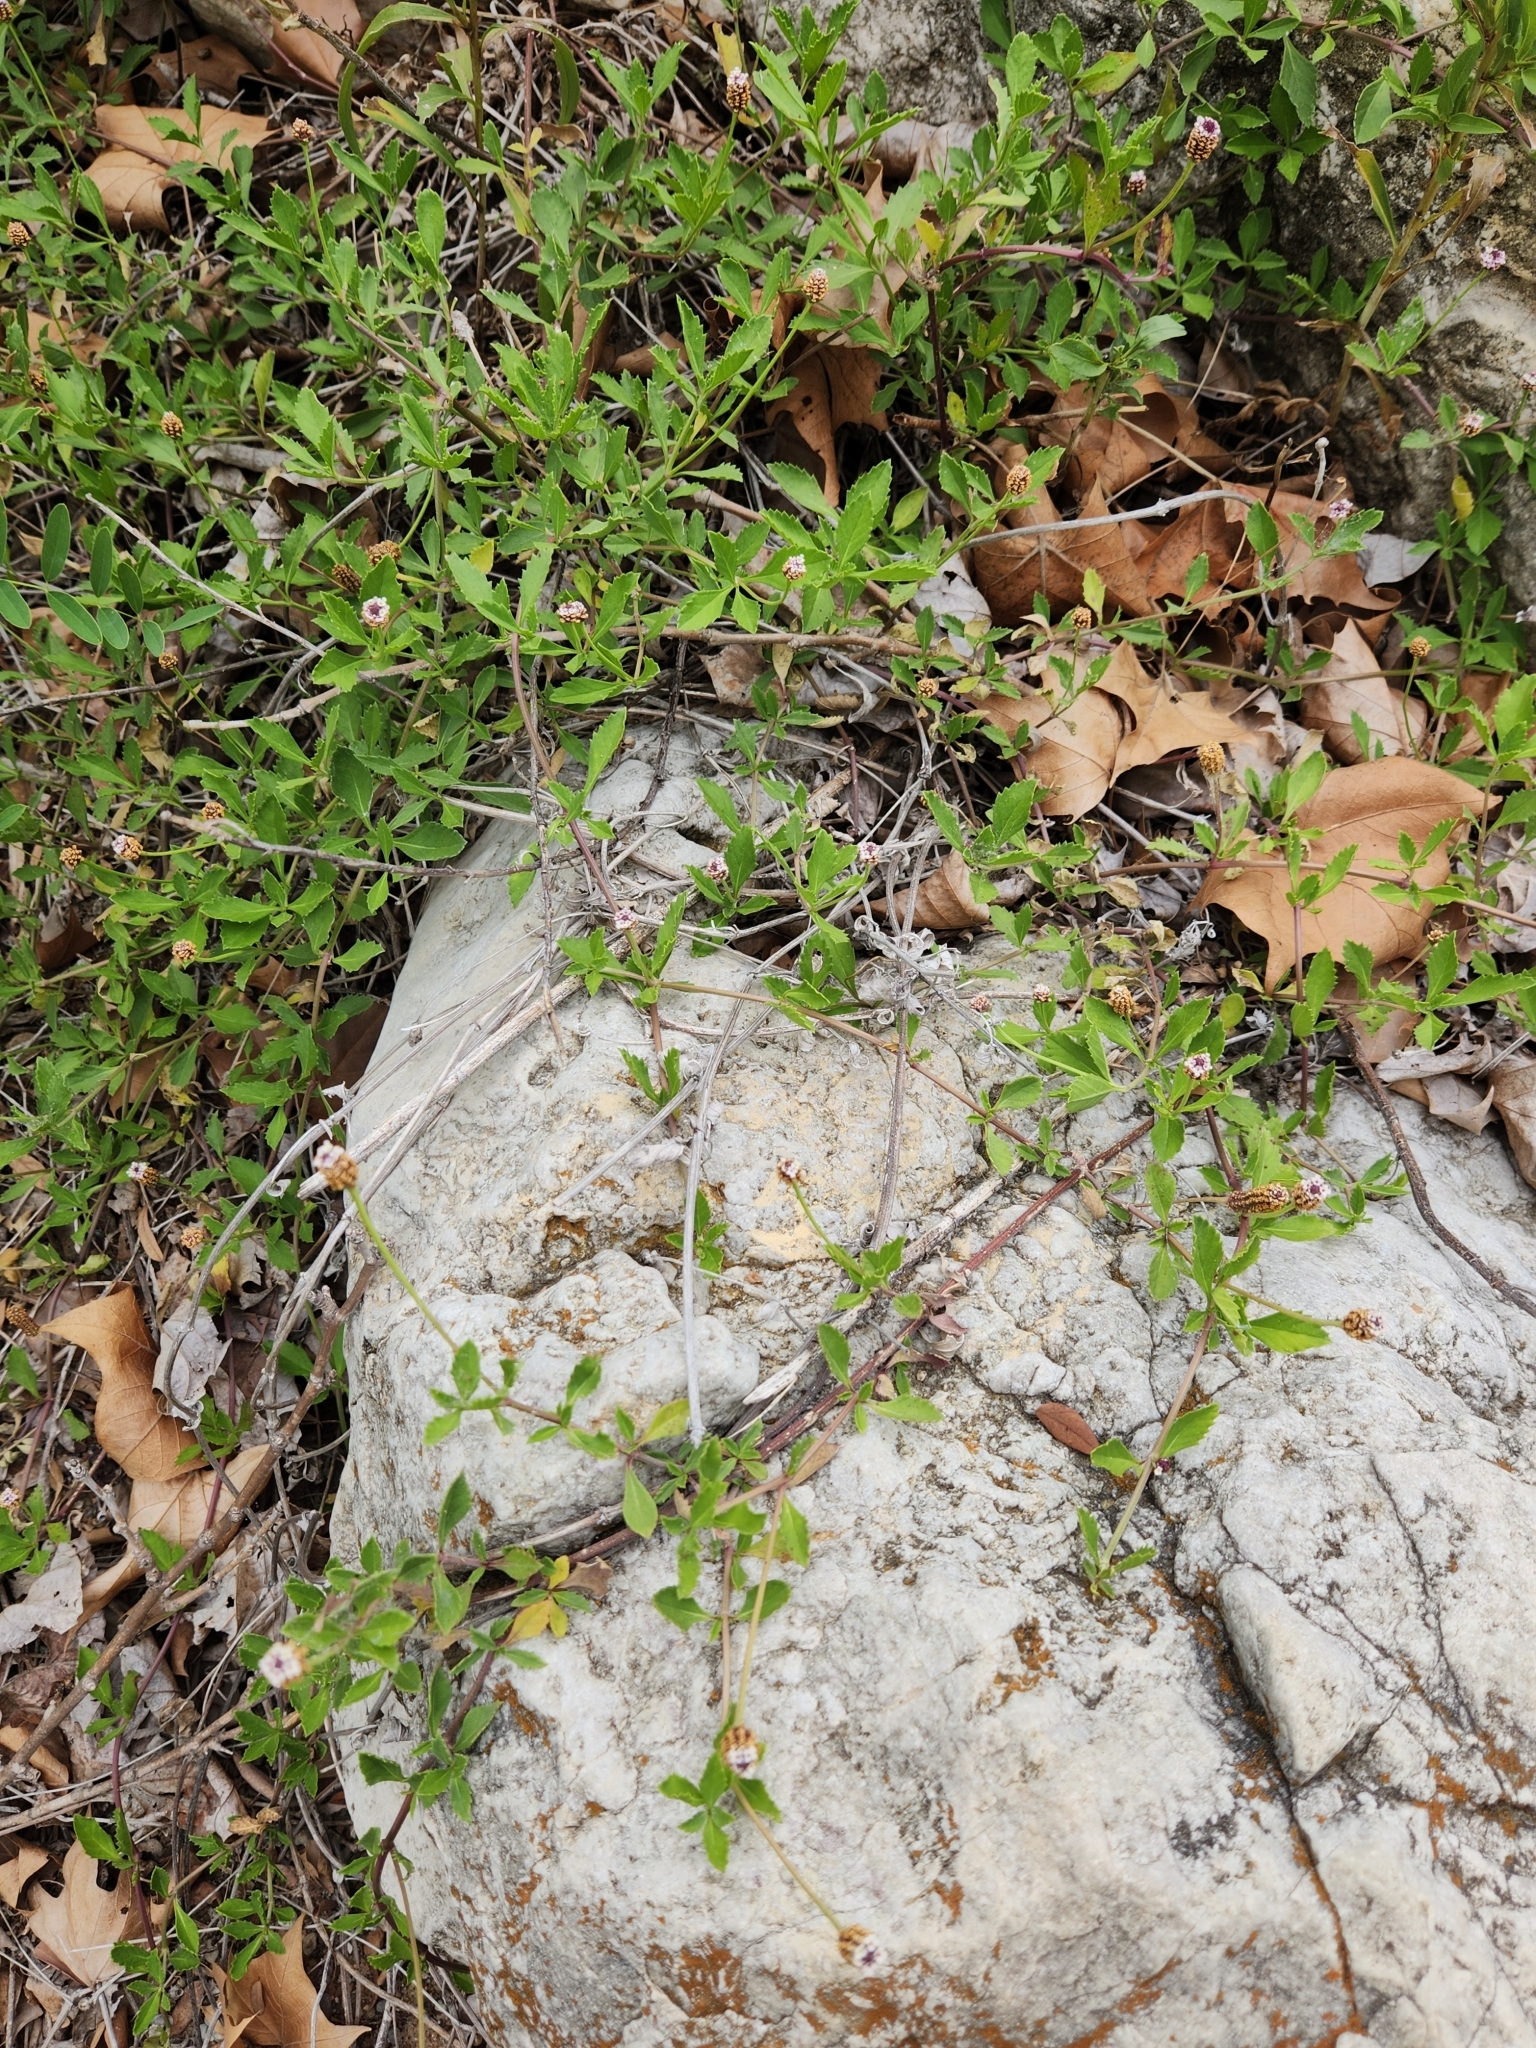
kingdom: Plantae
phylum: Tracheophyta
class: Magnoliopsida
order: Lamiales
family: Verbenaceae
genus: Phyla
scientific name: Phyla nodiflora
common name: Frogfruit
